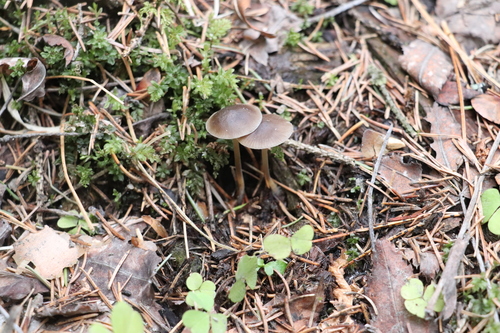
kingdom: Fungi
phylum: Basidiomycota
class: Agaricomycetes
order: Agaricales
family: Physalacriaceae
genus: Strobilurus
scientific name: Strobilurus esculentus
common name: Sprucecone cap
